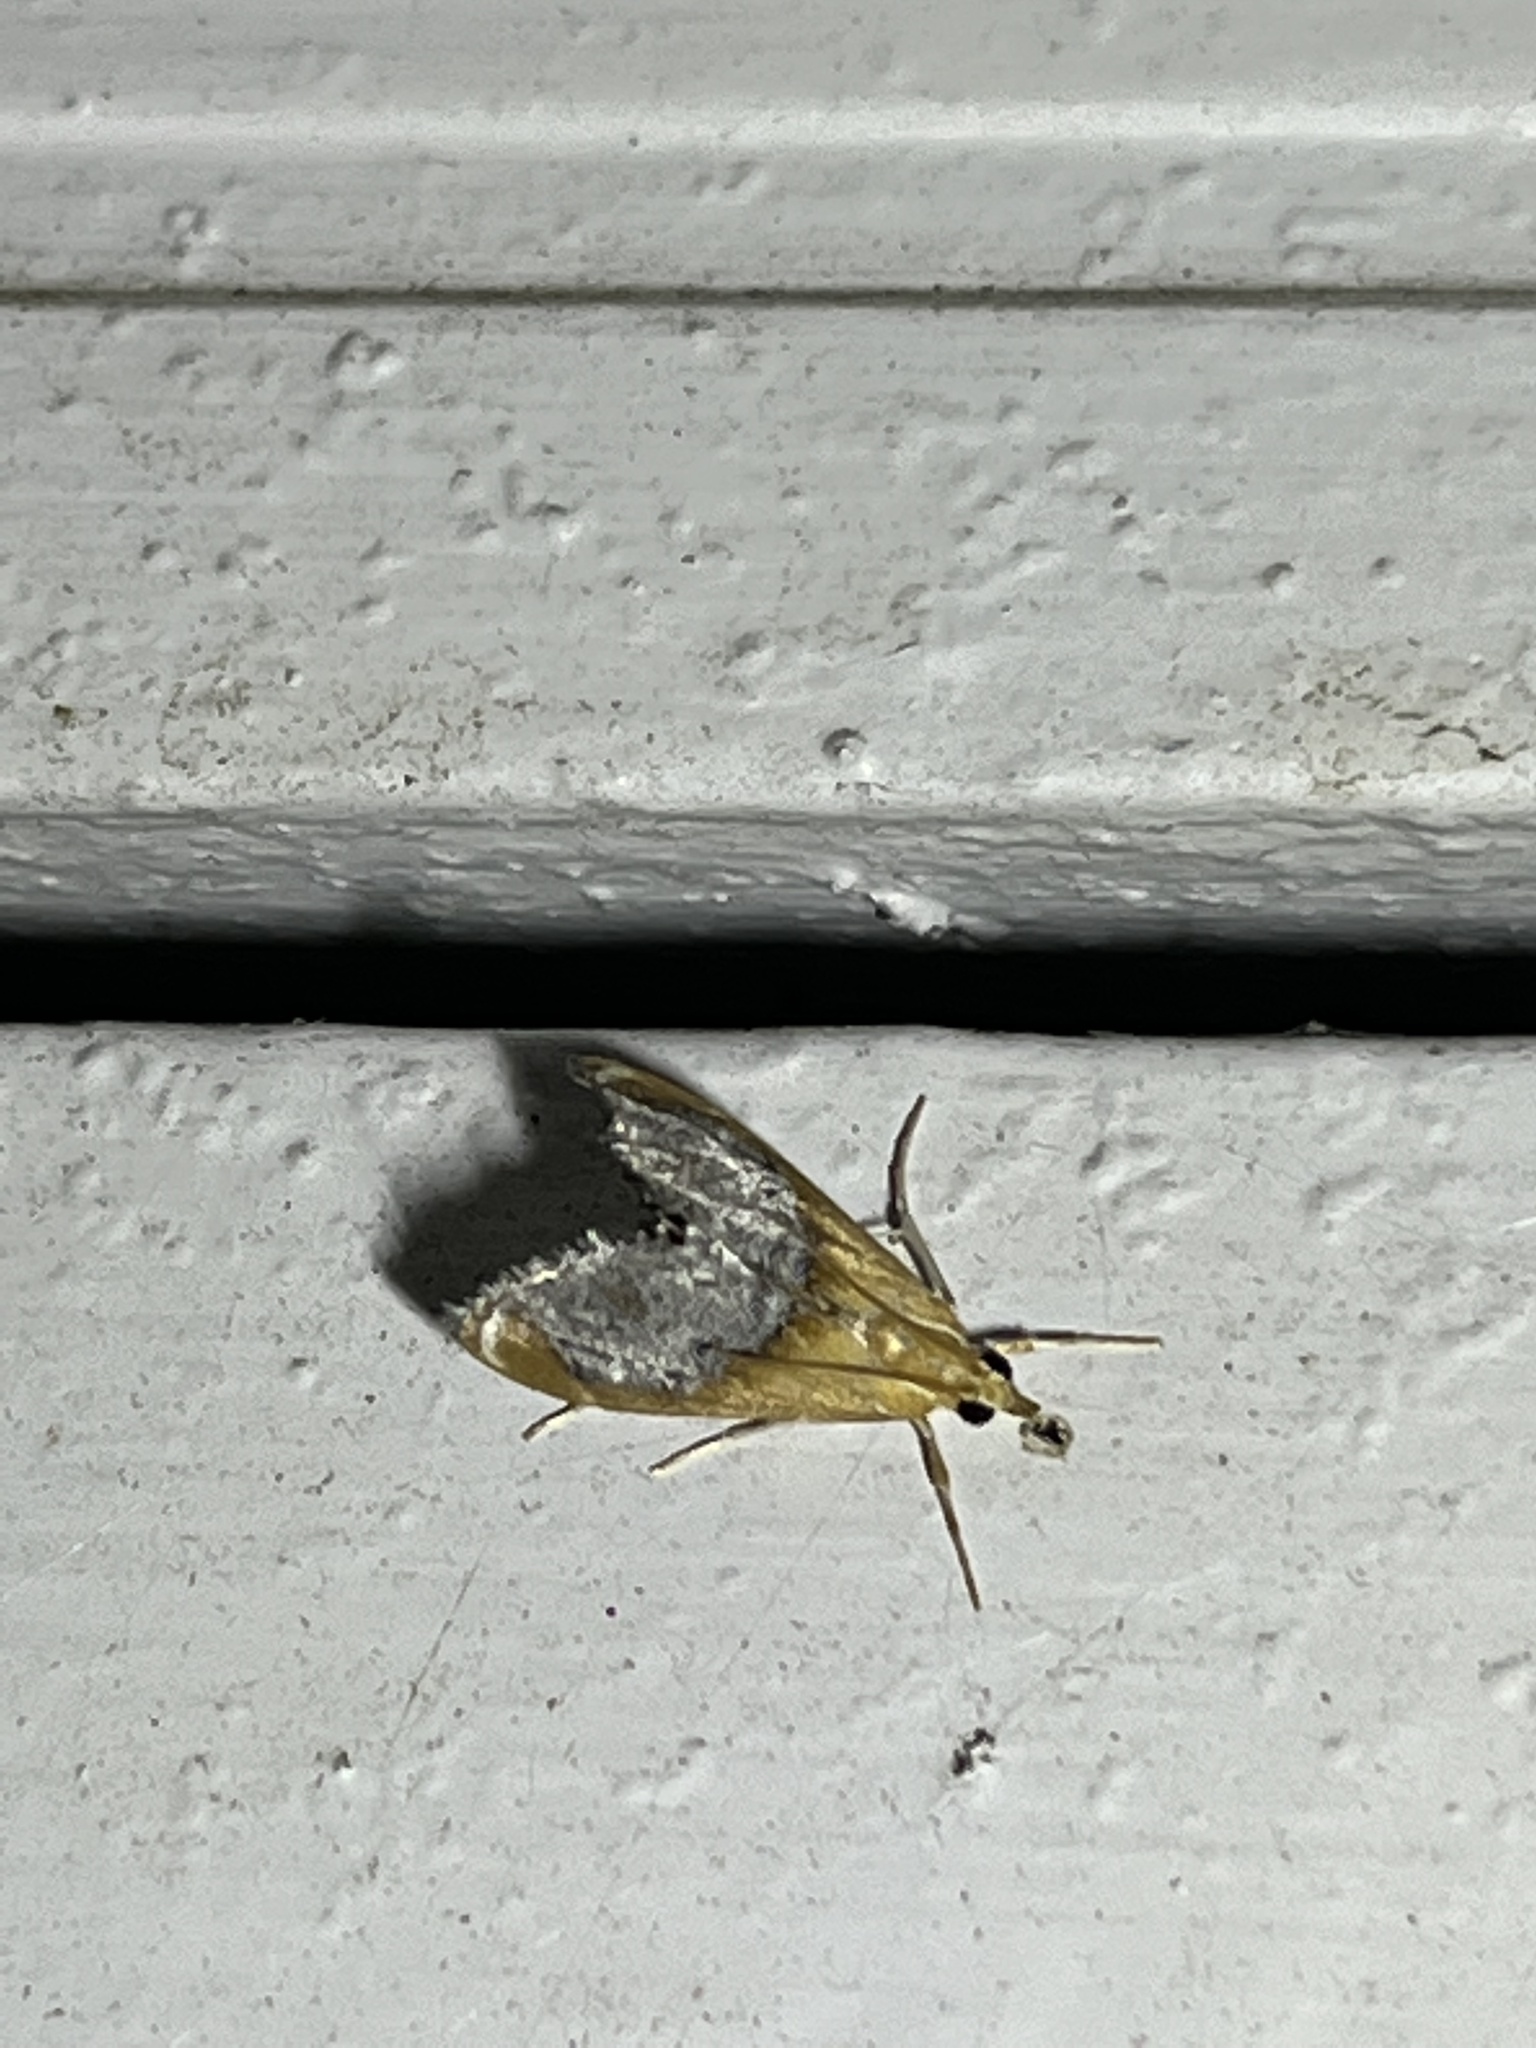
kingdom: Animalia
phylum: Arthropoda
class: Insecta
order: Lepidoptera
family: Crambidae
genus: Chalcoela
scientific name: Chalcoela iphitalis
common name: Sooty-winged chalcoela moth
